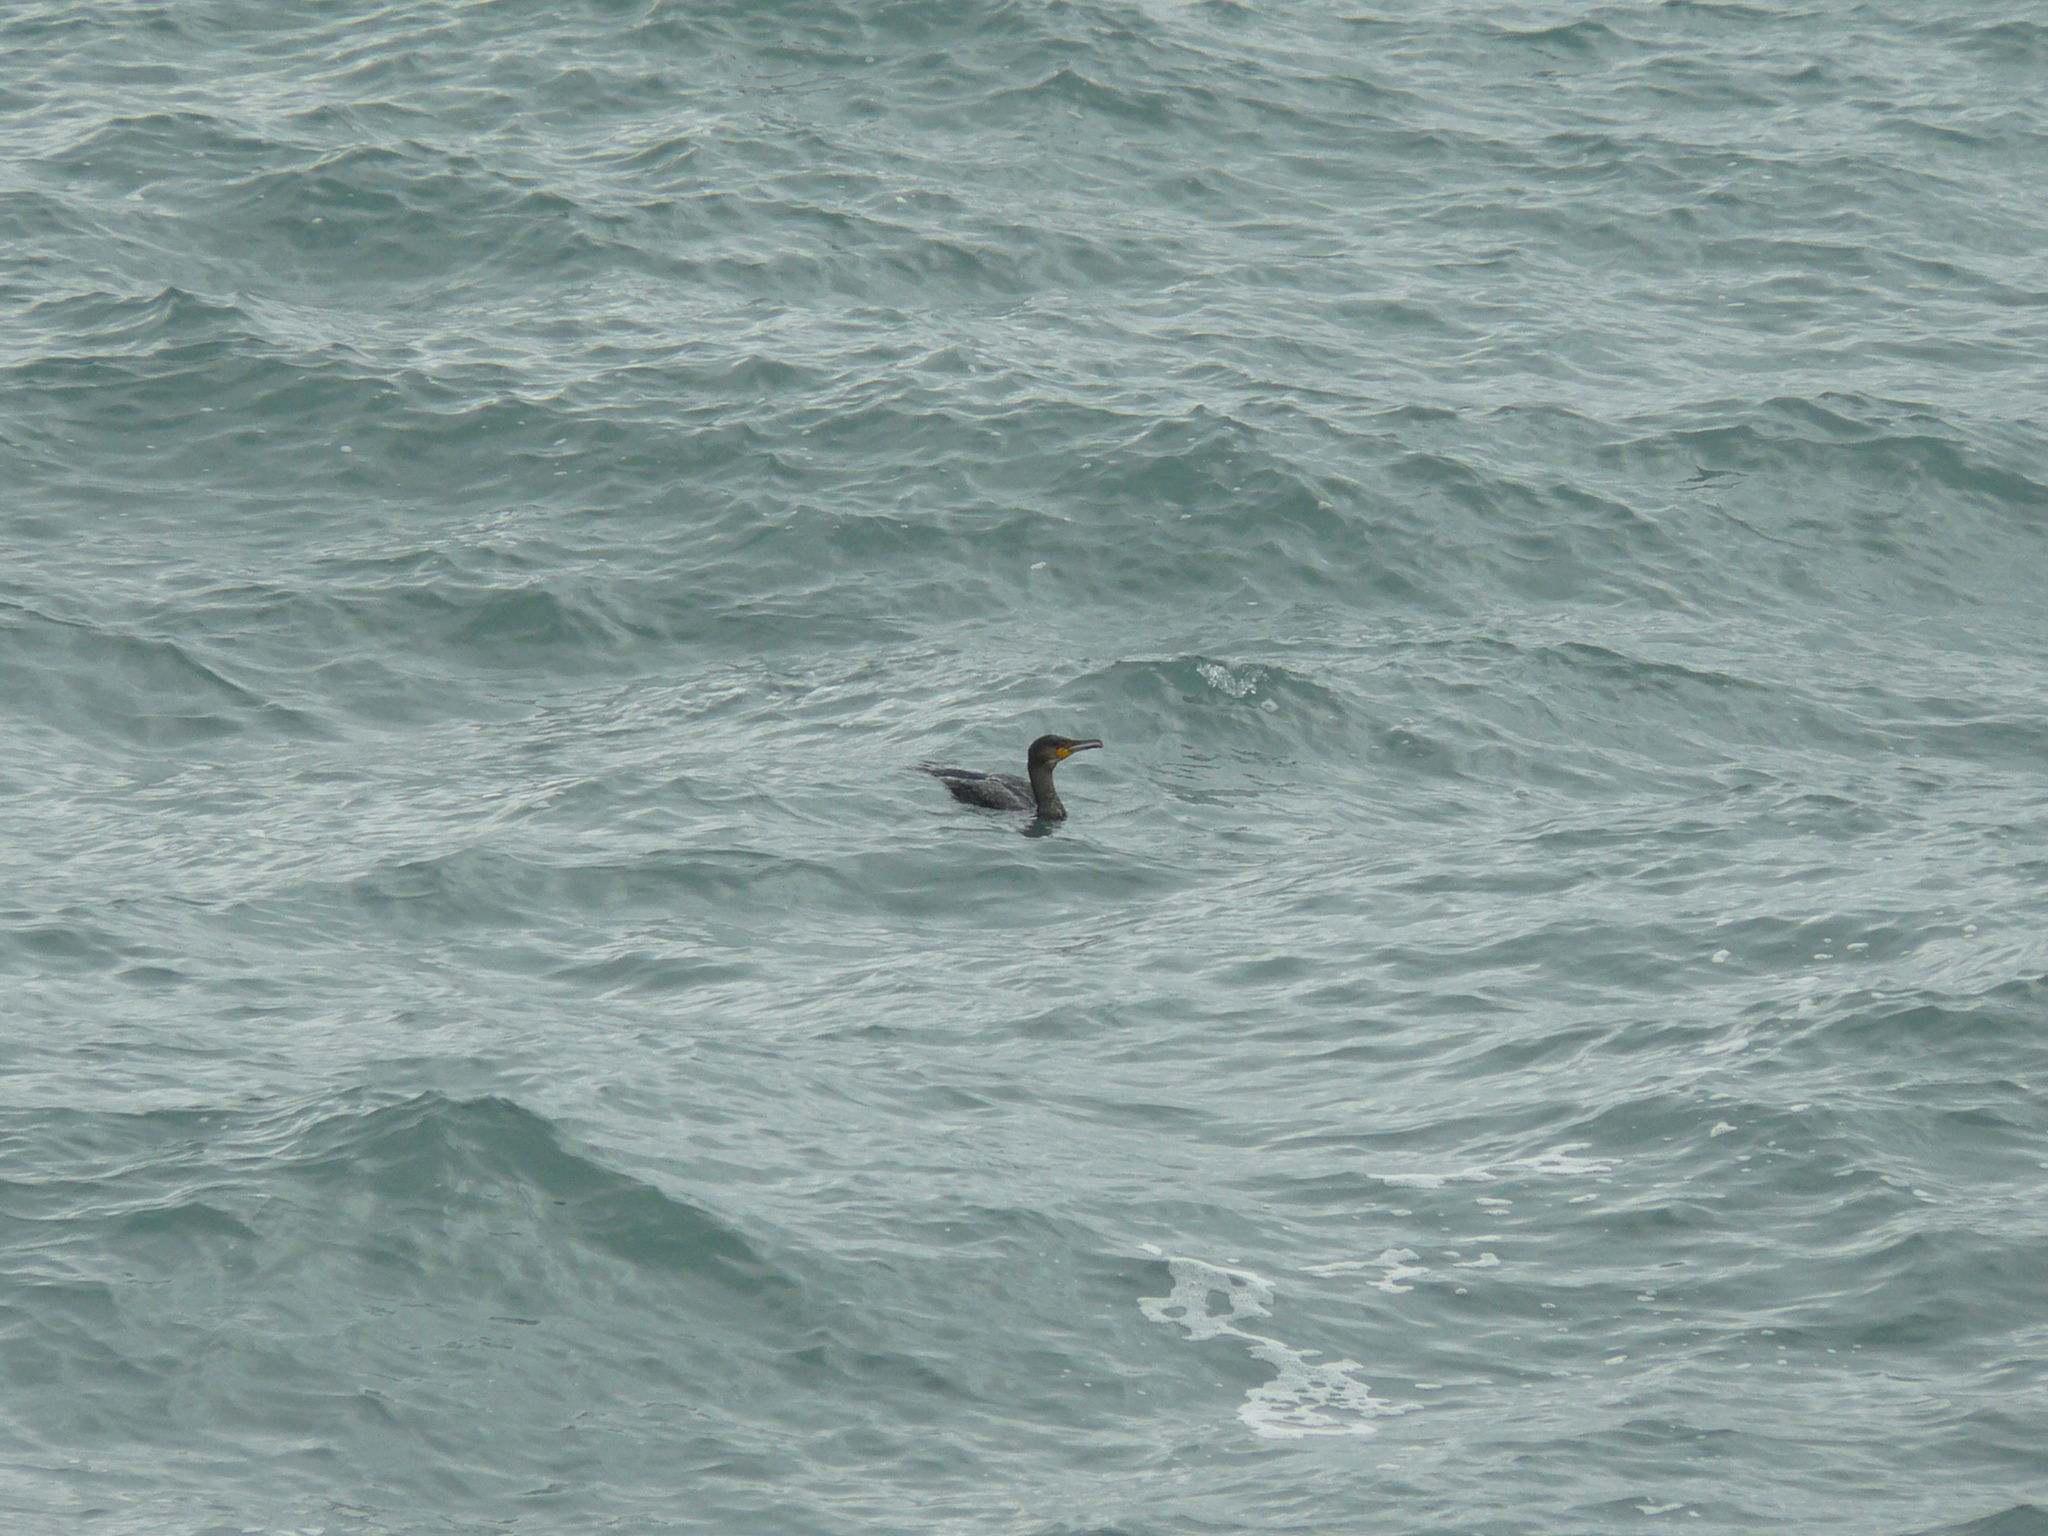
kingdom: Animalia
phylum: Chordata
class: Aves
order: Suliformes
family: Phalacrocoracidae
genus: Phalacrocorax
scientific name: Phalacrocorax carbo
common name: Great cormorant
